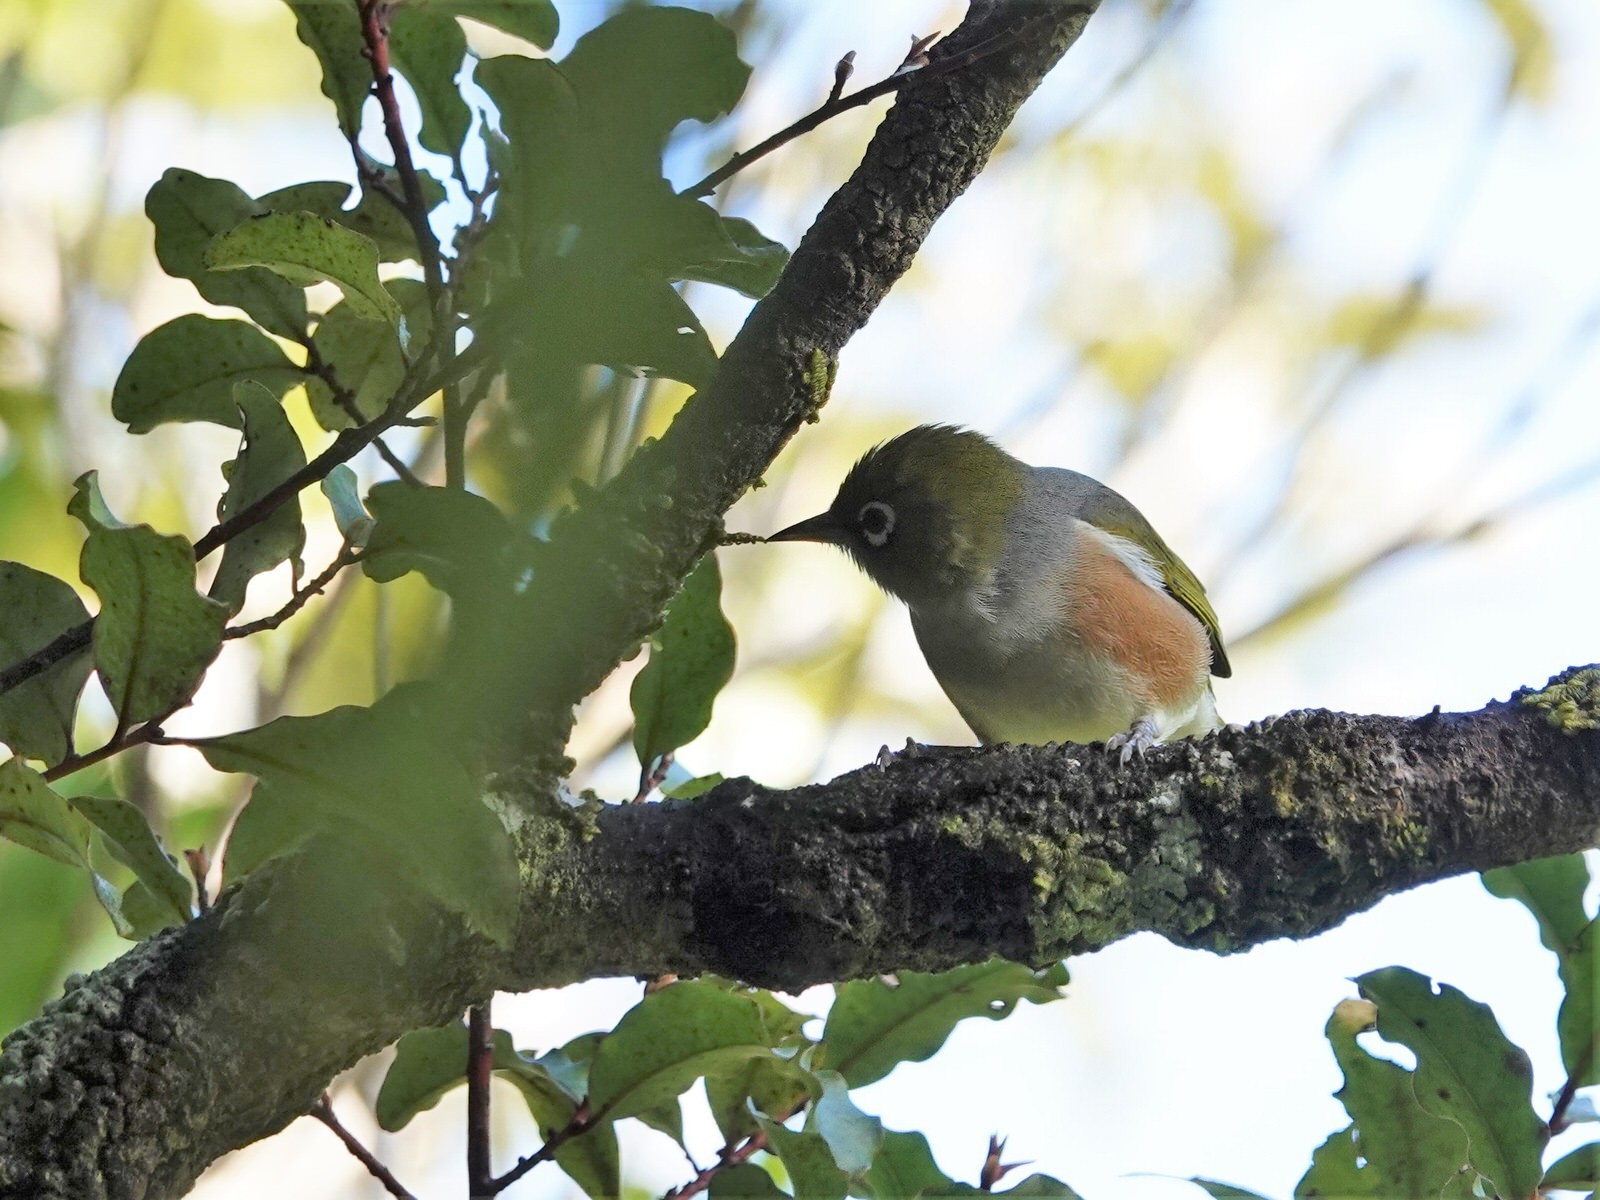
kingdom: Animalia
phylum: Chordata
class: Aves
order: Passeriformes
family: Zosteropidae
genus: Zosterops
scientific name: Zosterops lateralis
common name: Silvereye
